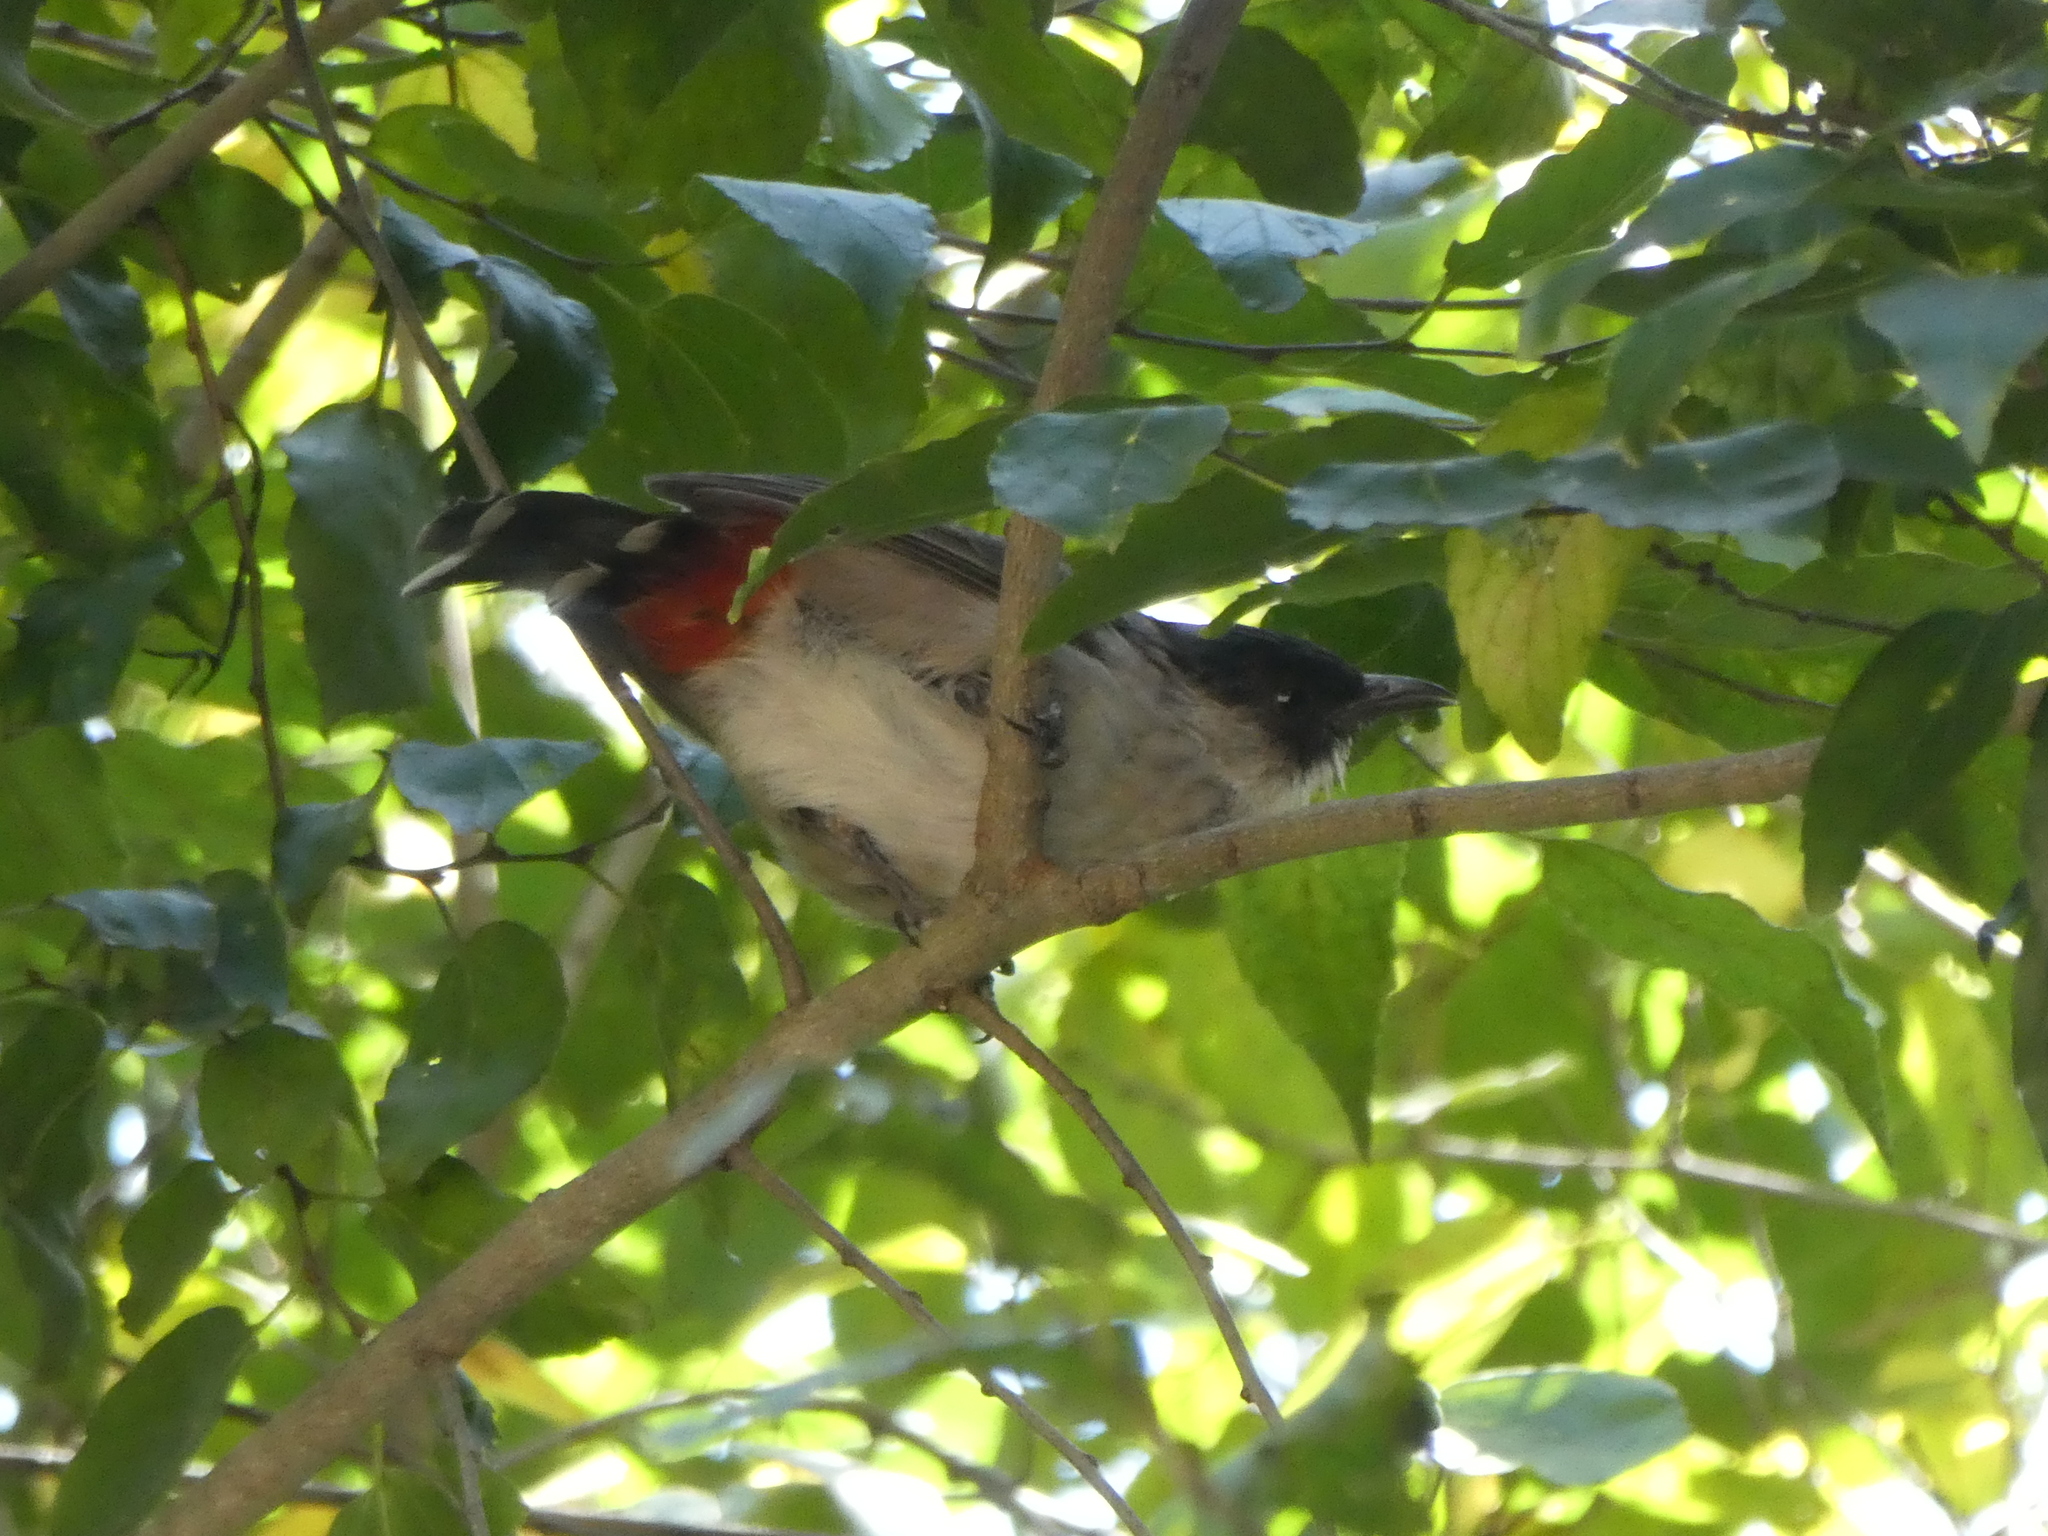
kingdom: Animalia
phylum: Chordata
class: Aves
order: Passeriformes
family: Pycnonotidae
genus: Pycnonotus
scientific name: Pycnonotus aurigaster
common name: Sooty-headed bulbul
